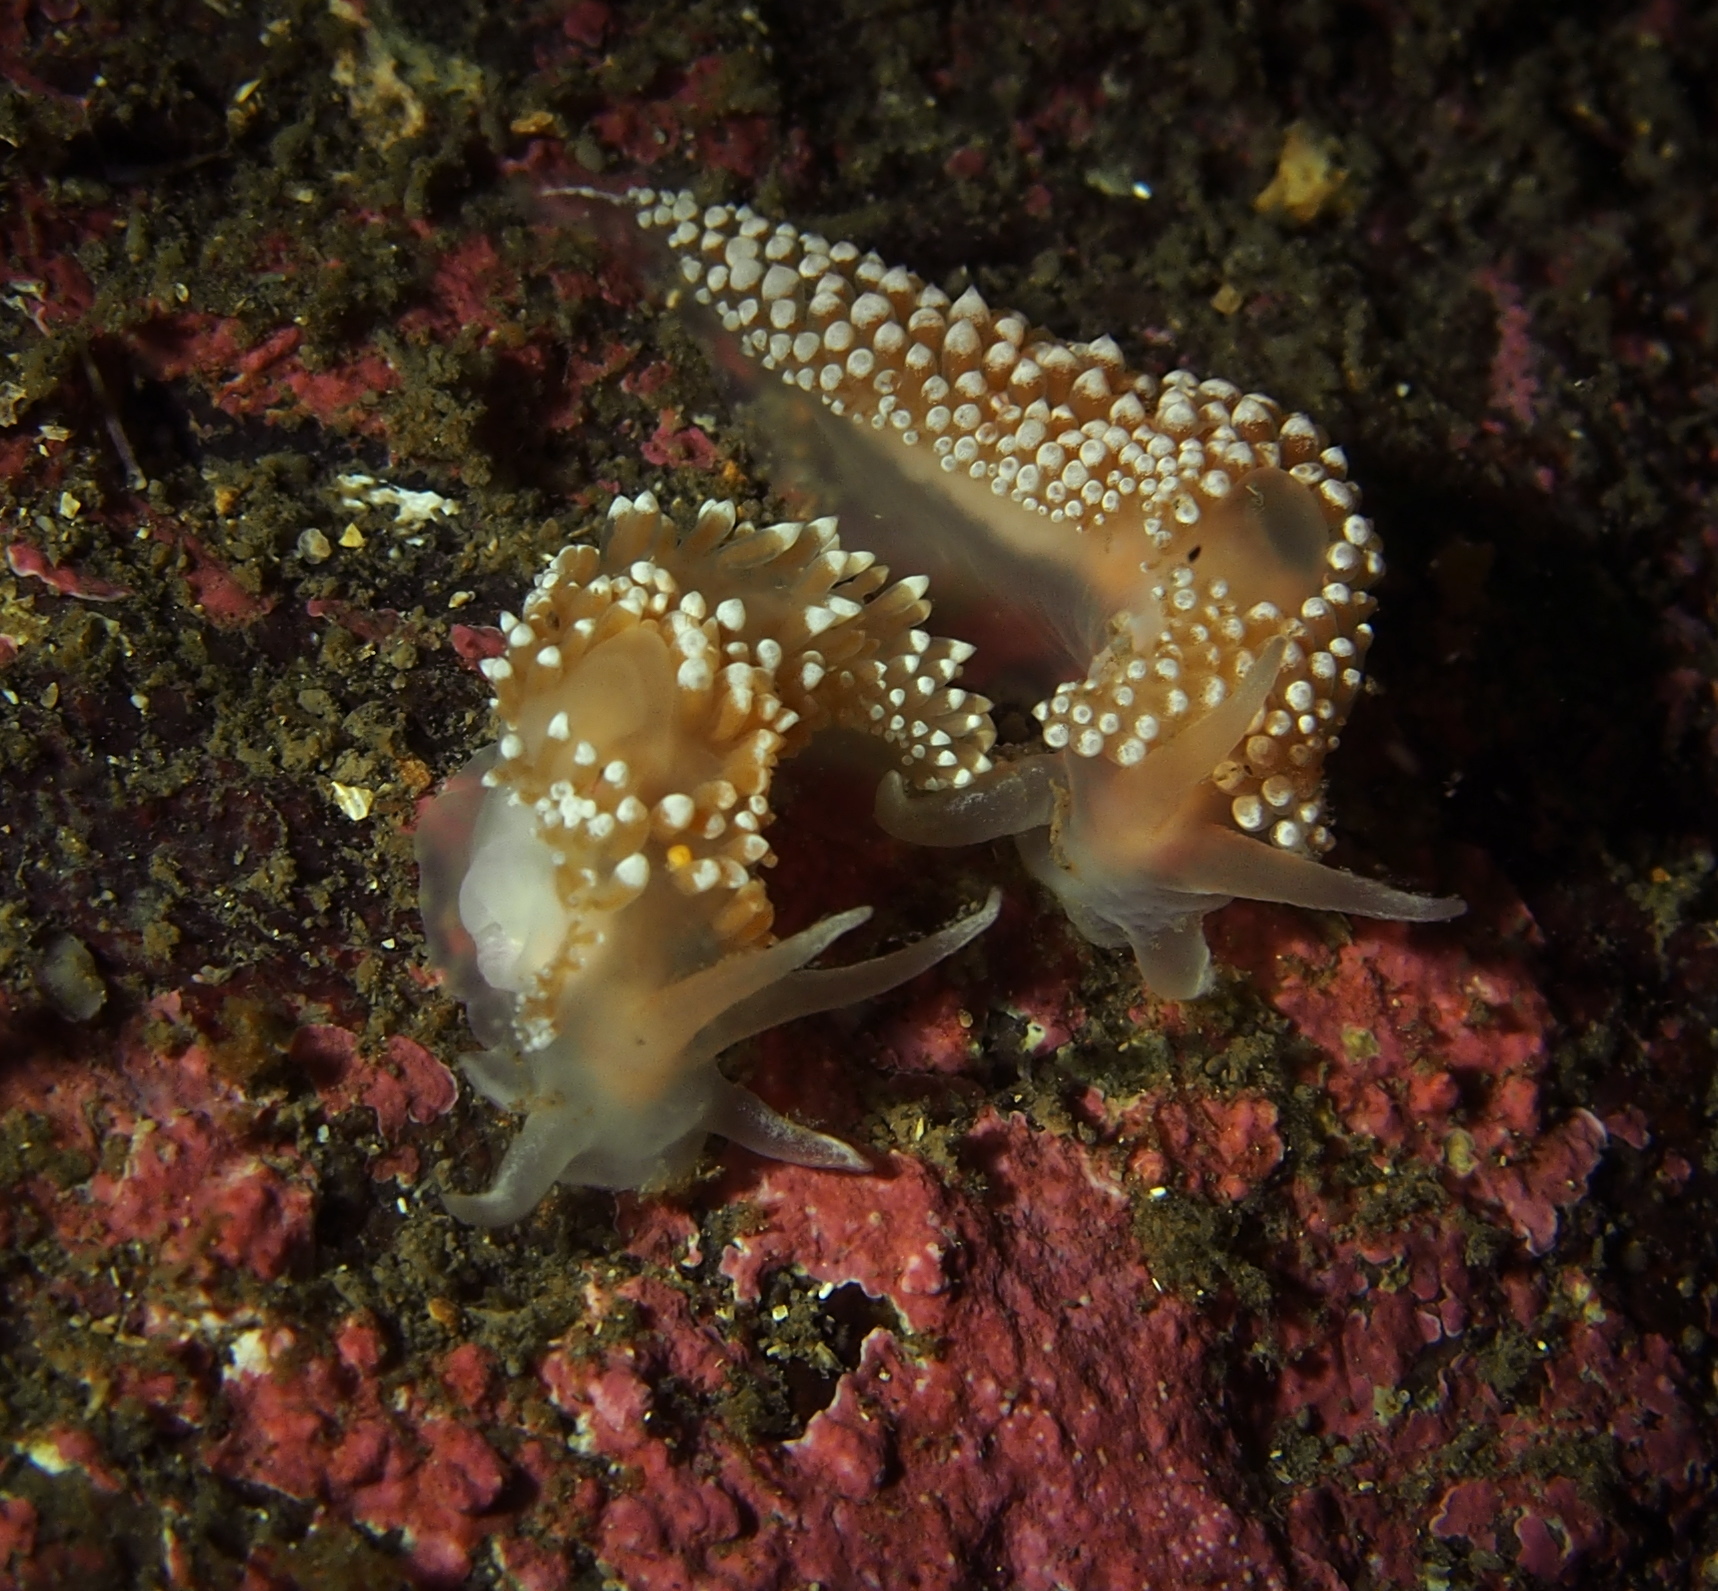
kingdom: Animalia
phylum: Mollusca
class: Gastropoda
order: Nudibranchia
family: Coryphellidae
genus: Coryphella
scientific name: Coryphella verrucosa
